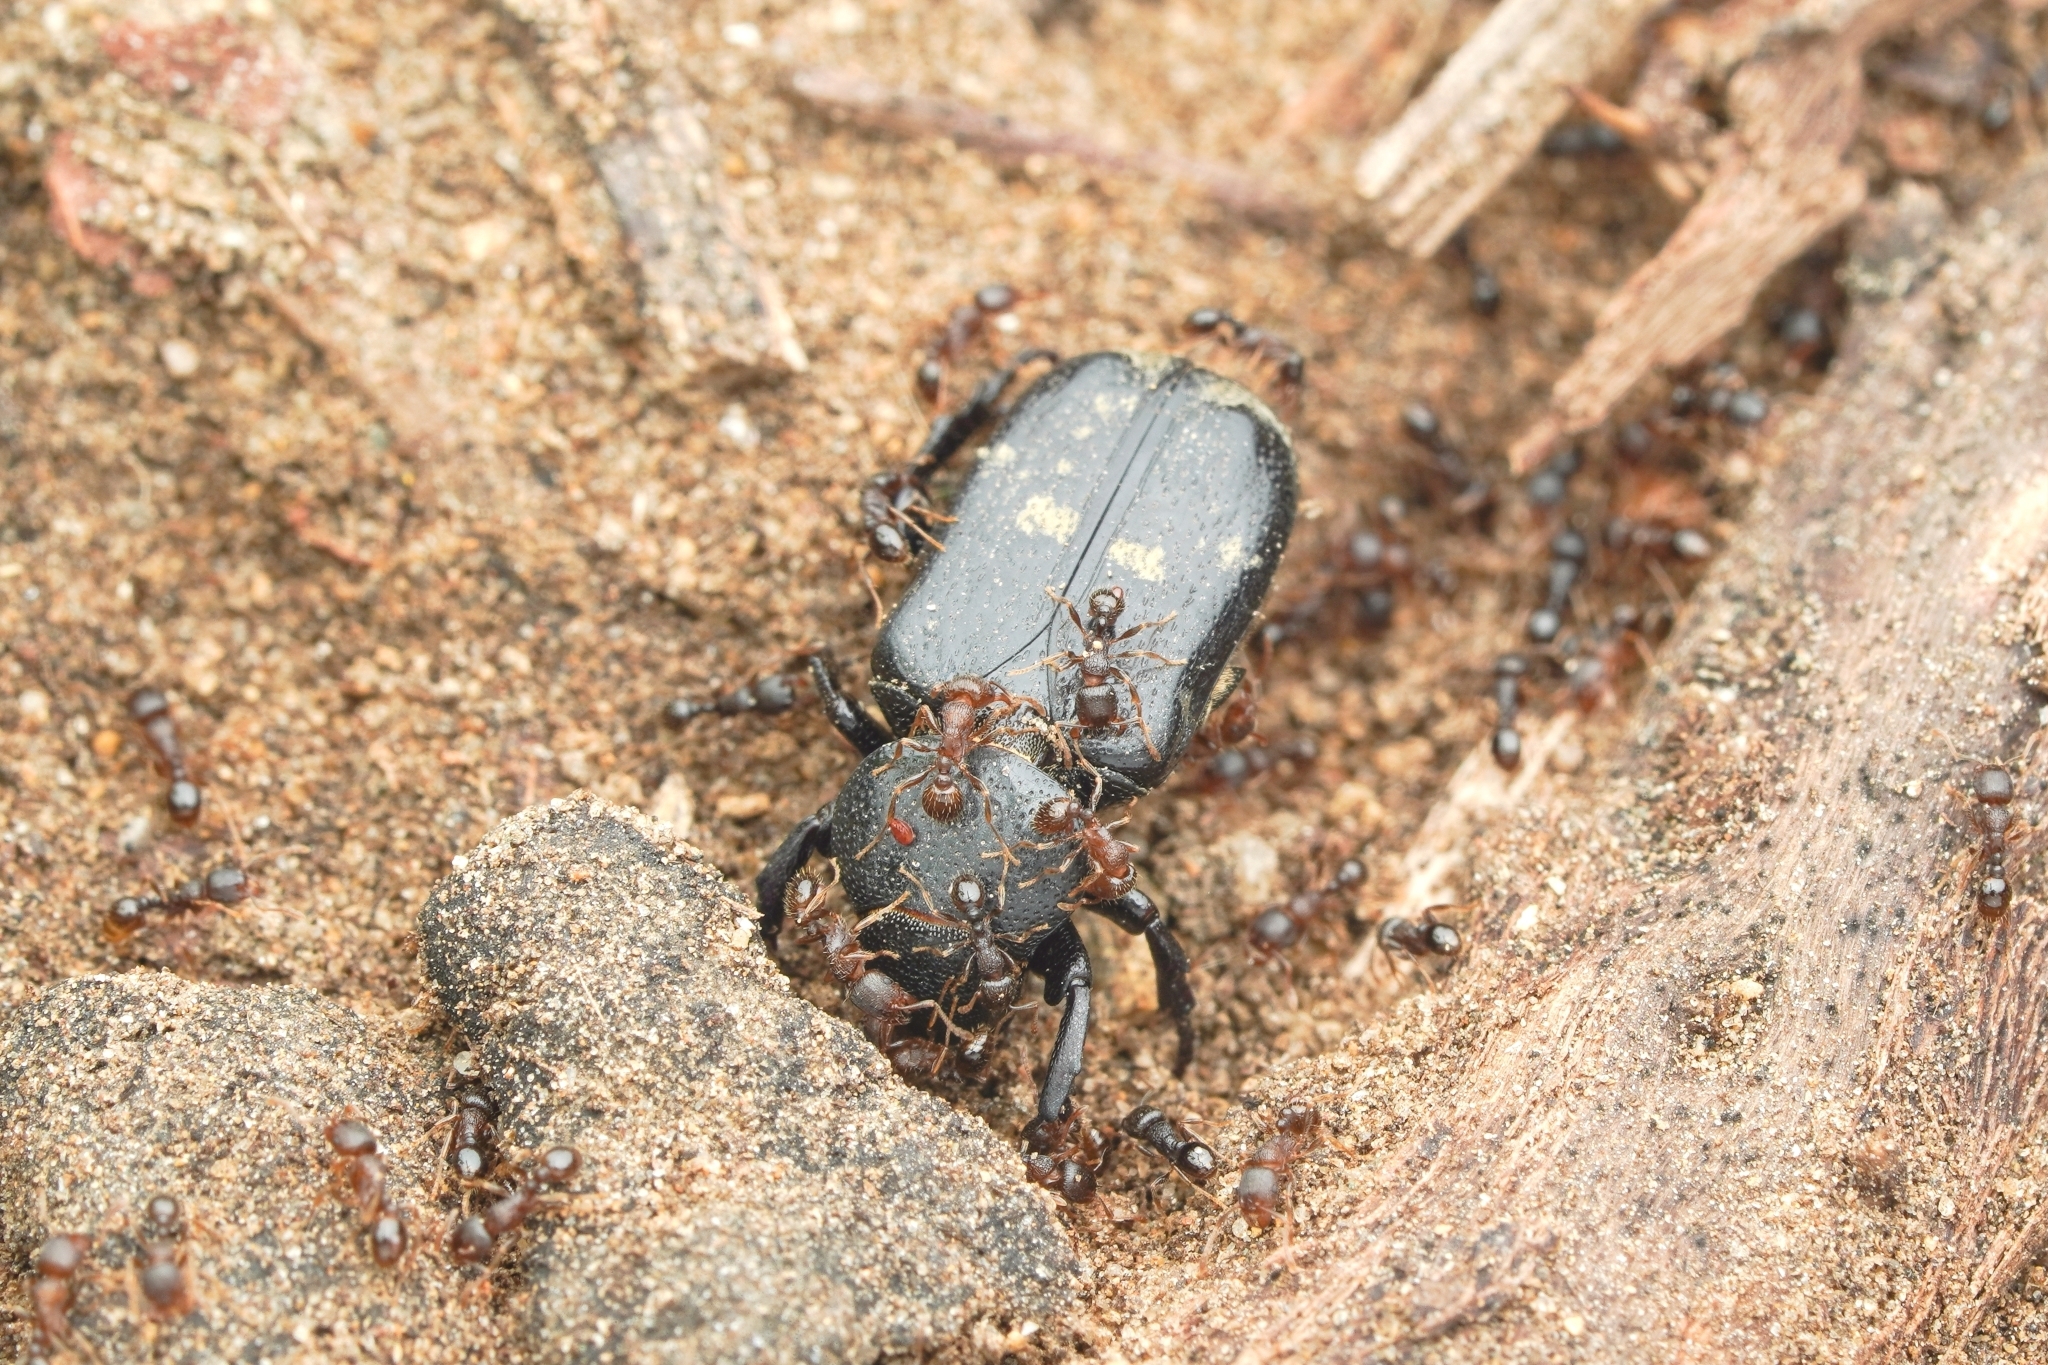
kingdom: Animalia
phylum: Arthropoda
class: Insecta
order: Coleoptera
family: Scarabaeidae
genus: Clinterocera
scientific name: Clinterocera scabrosa
